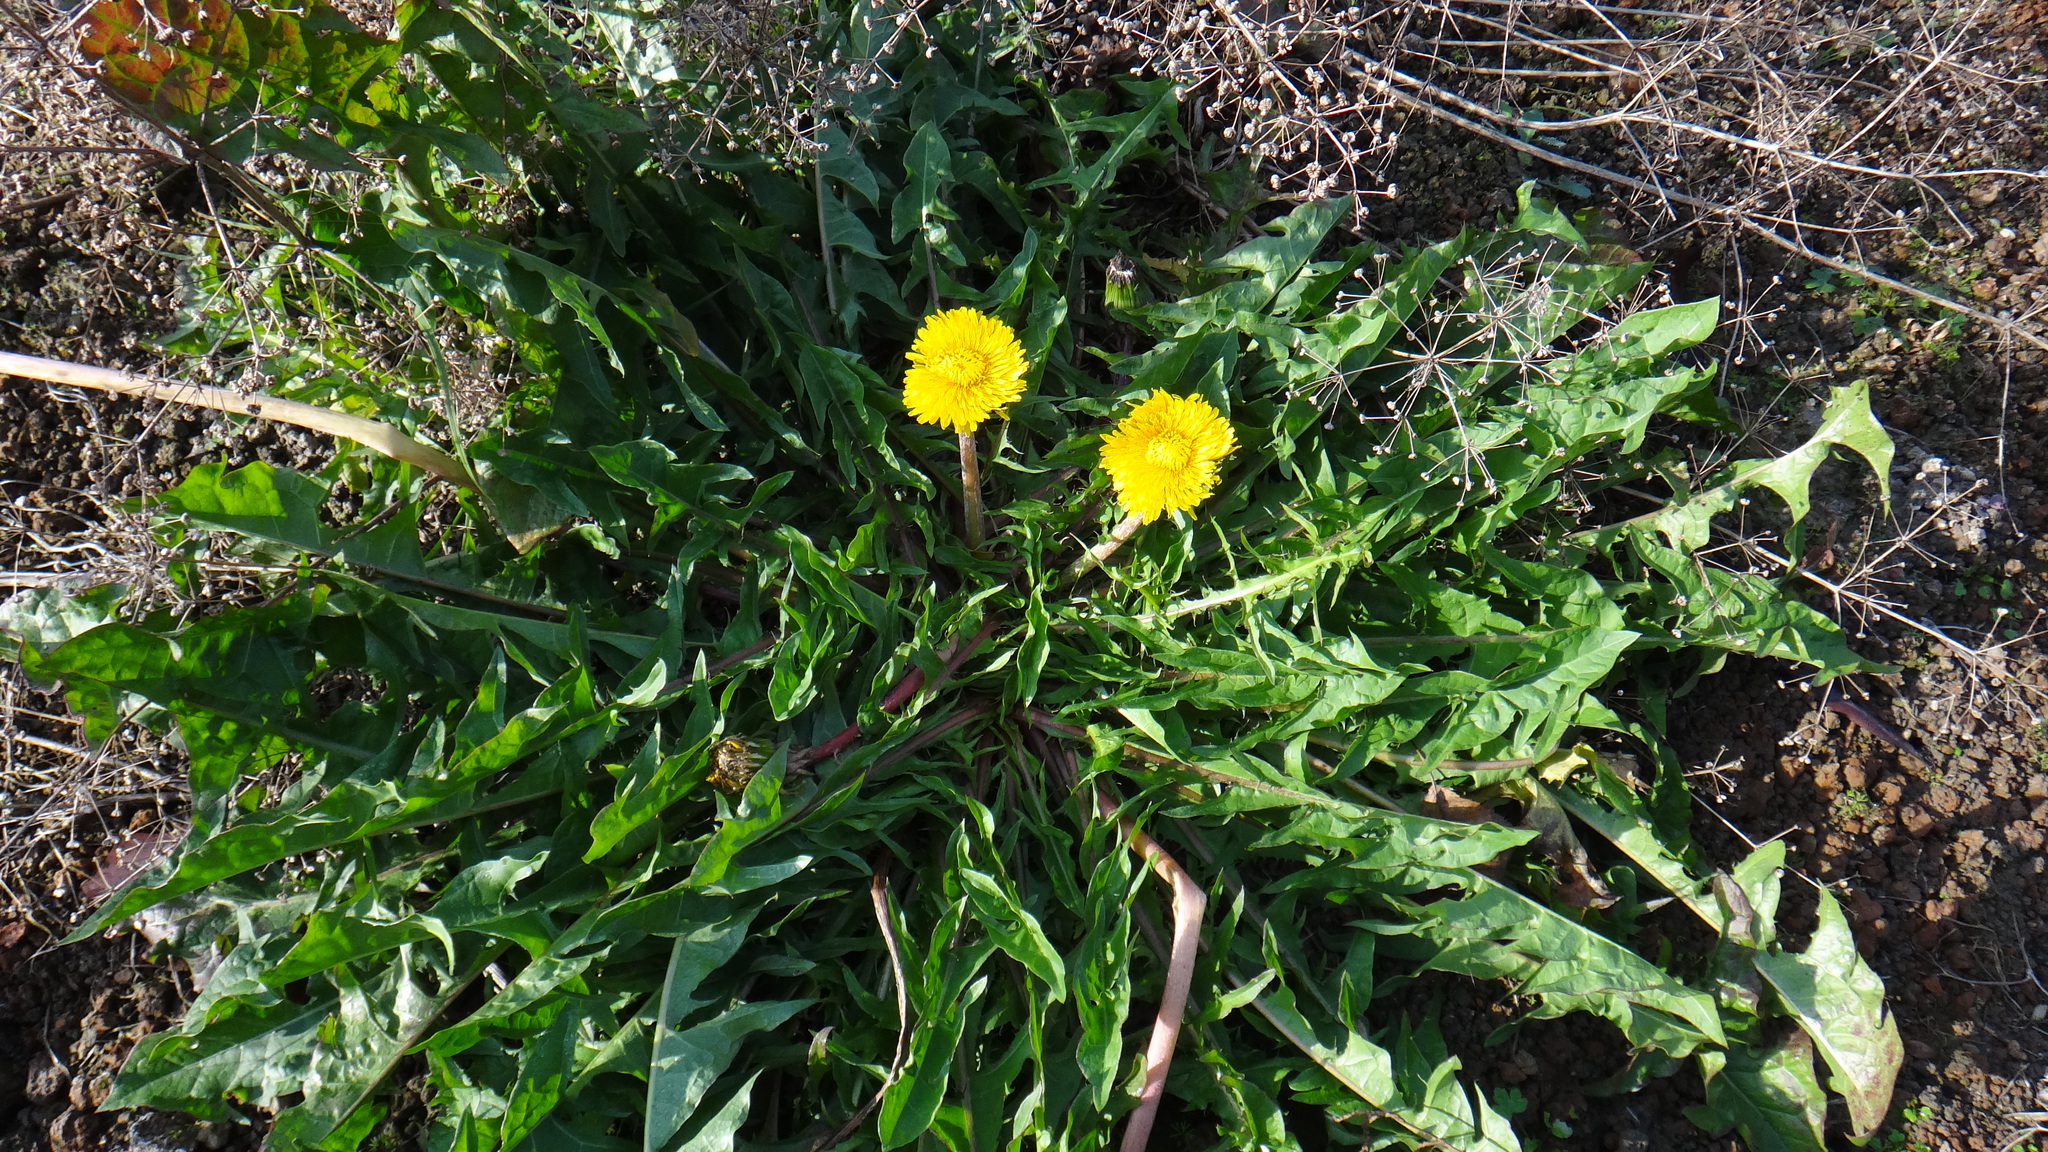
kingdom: Plantae
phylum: Tracheophyta
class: Magnoliopsida
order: Asterales
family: Asteraceae
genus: Taraxacum
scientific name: Taraxacum officinale
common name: Common dandelion
